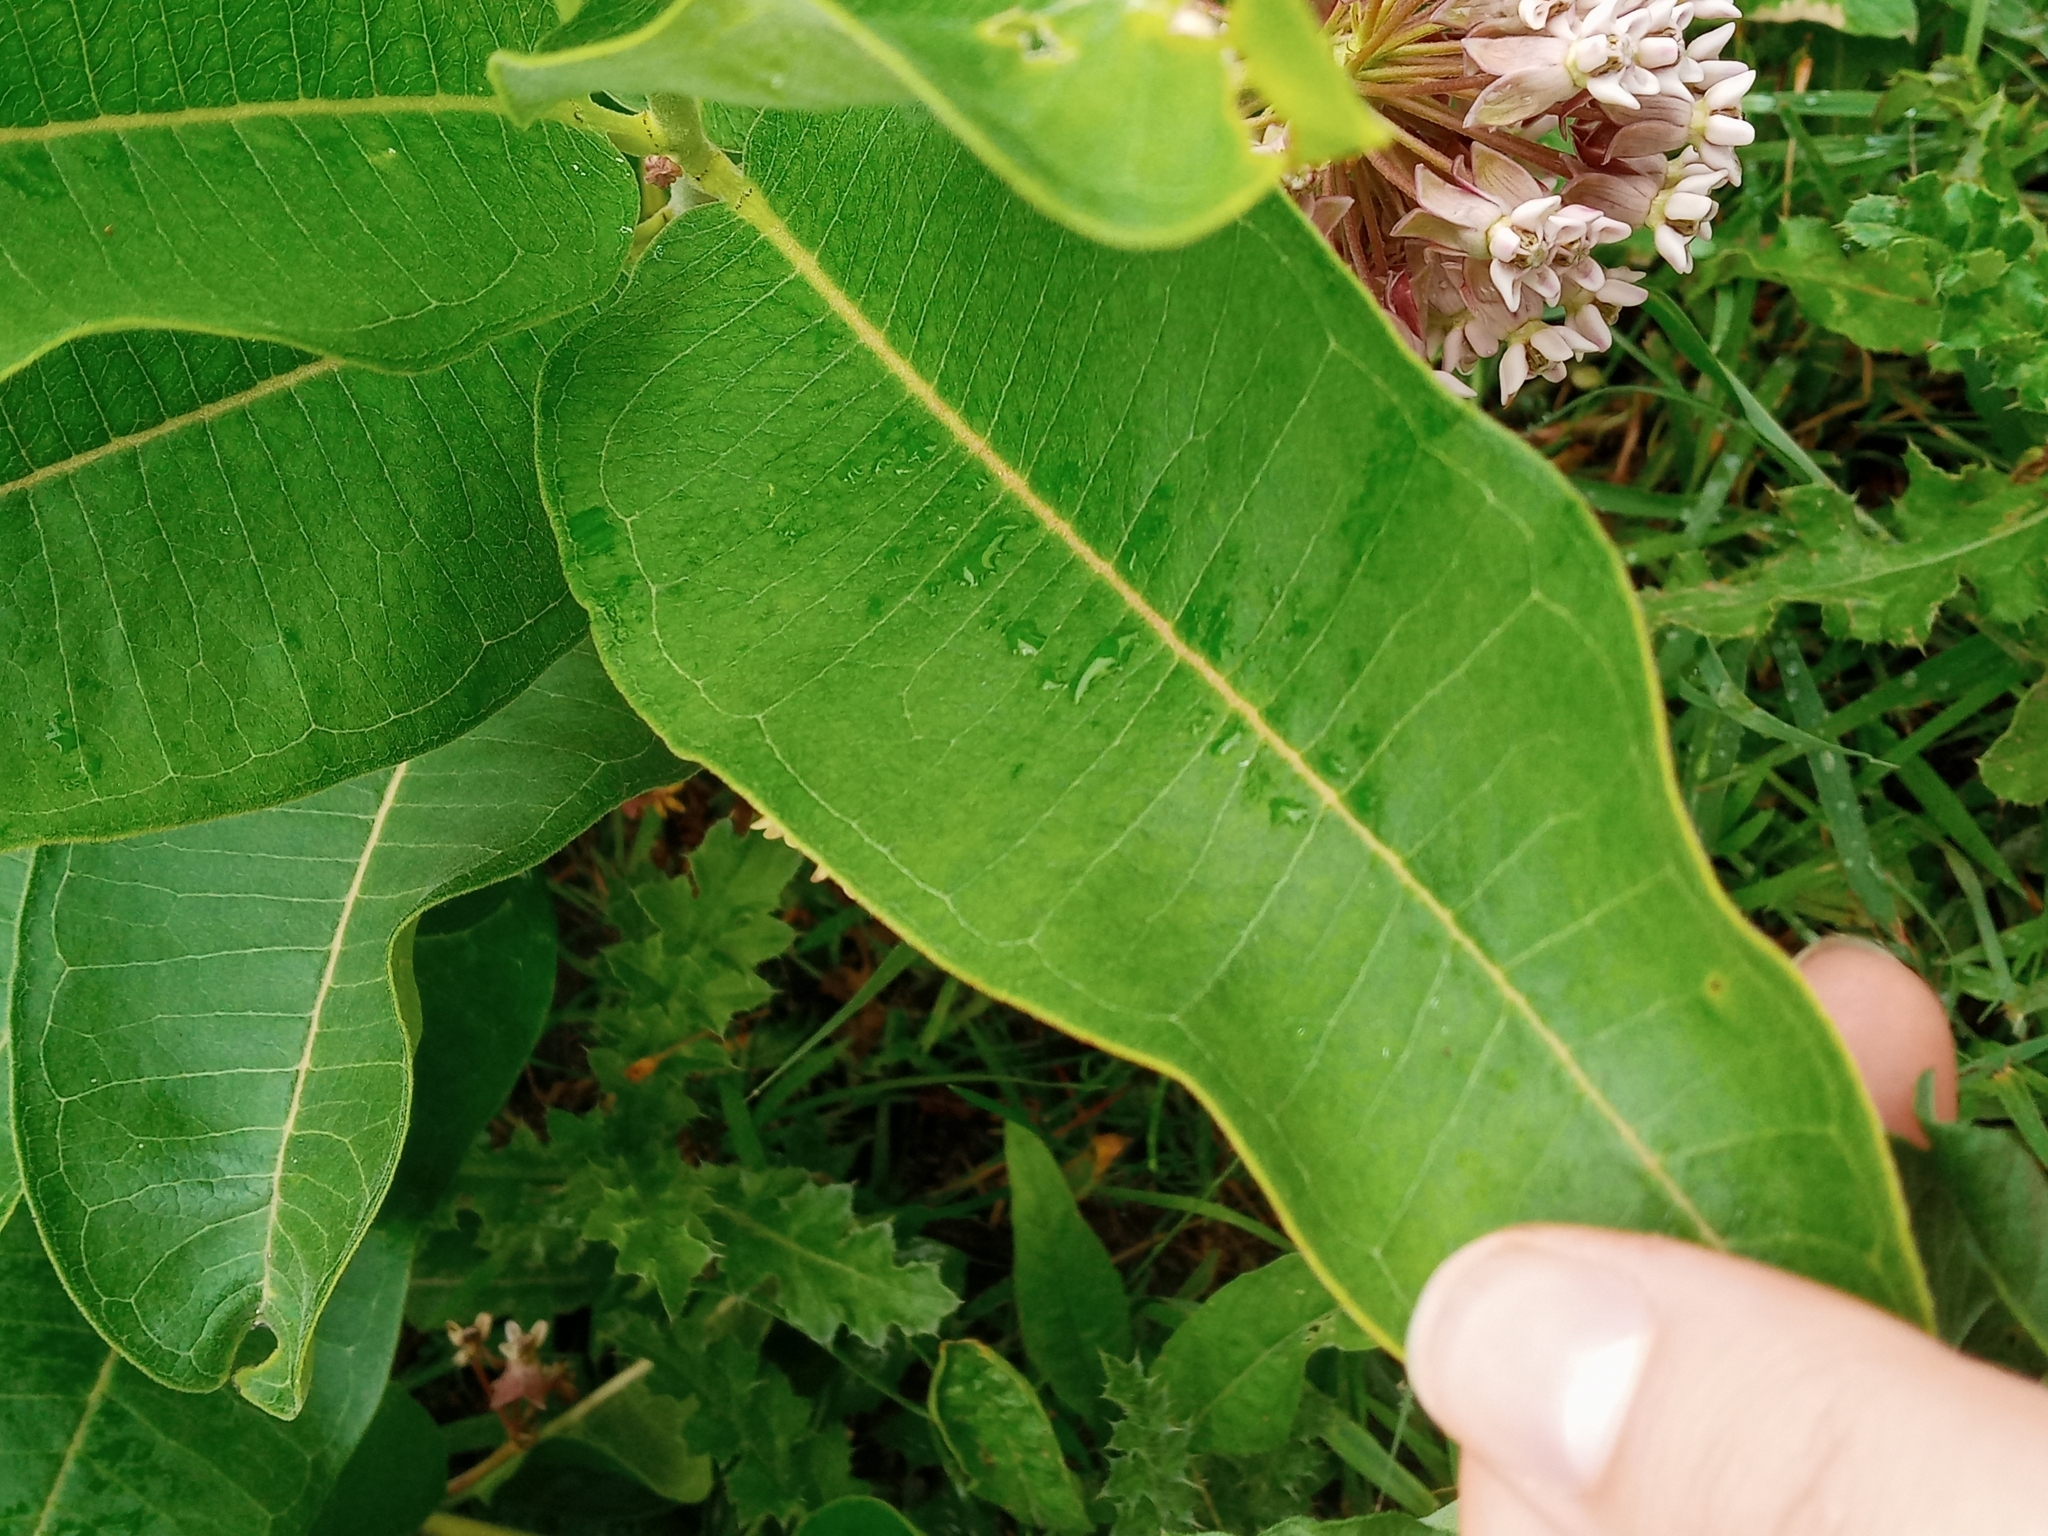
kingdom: Plantae
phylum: Tracheophyta
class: Magnoliopsida
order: Gentianales
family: Apocynaceae
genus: Asclepias
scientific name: Asclepias syriaca
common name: Common milkweed
